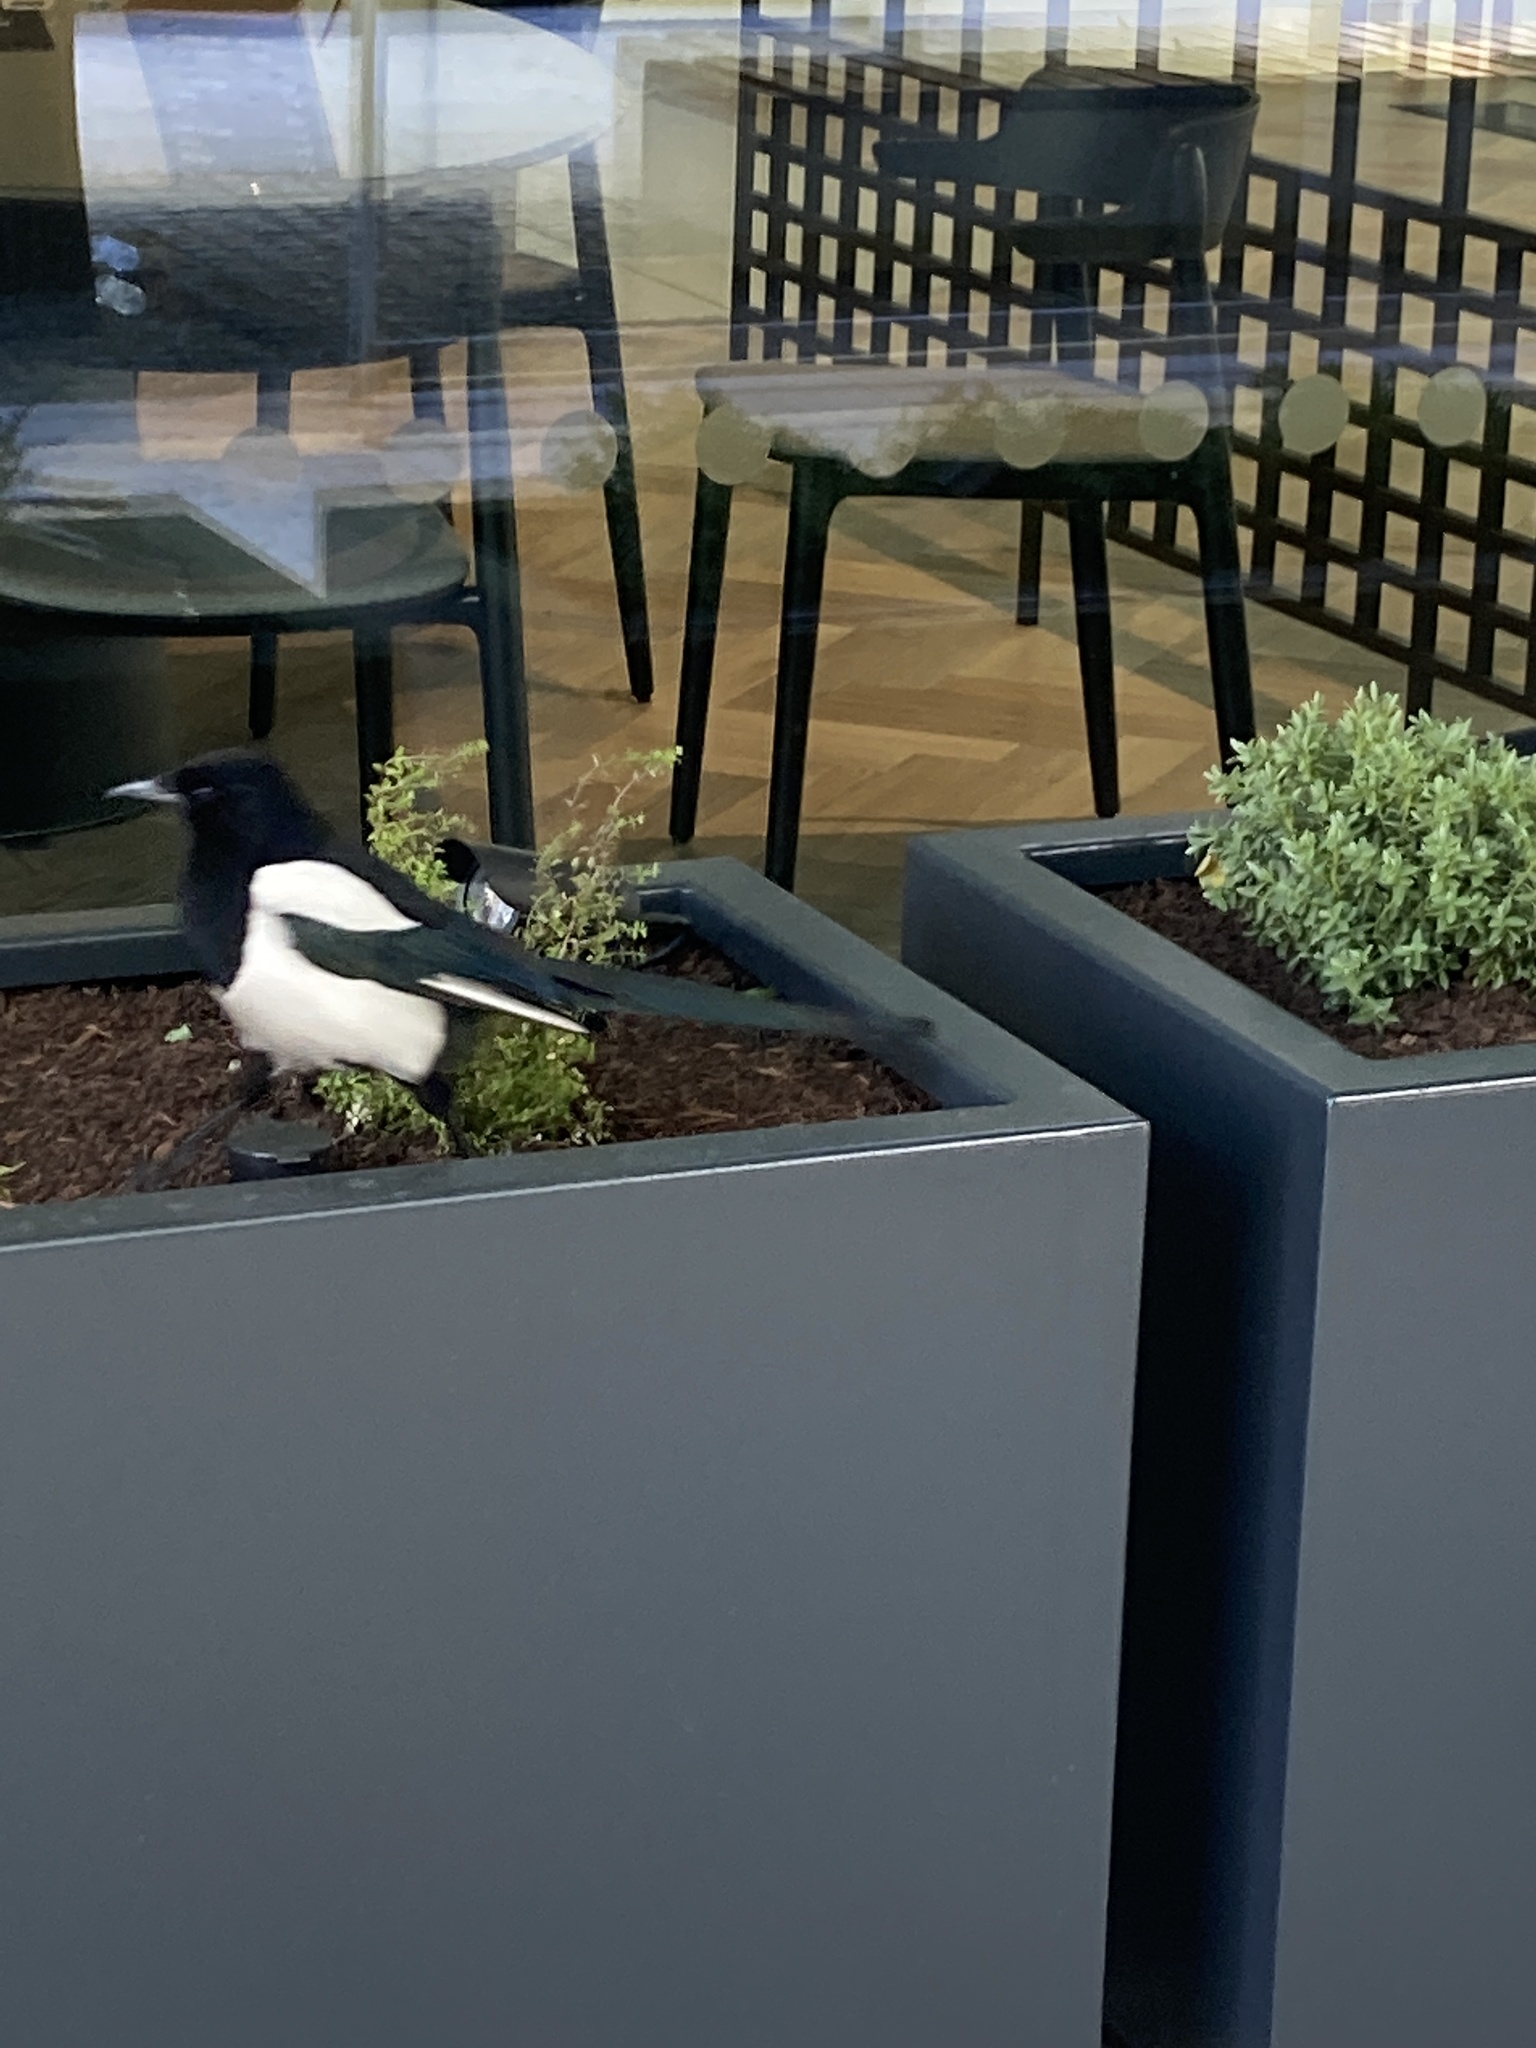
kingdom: Animalia
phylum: Chordata
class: Aves
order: Passeriformes
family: Corvidae
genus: Pica
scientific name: Pica pica
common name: Eurasian magpie
